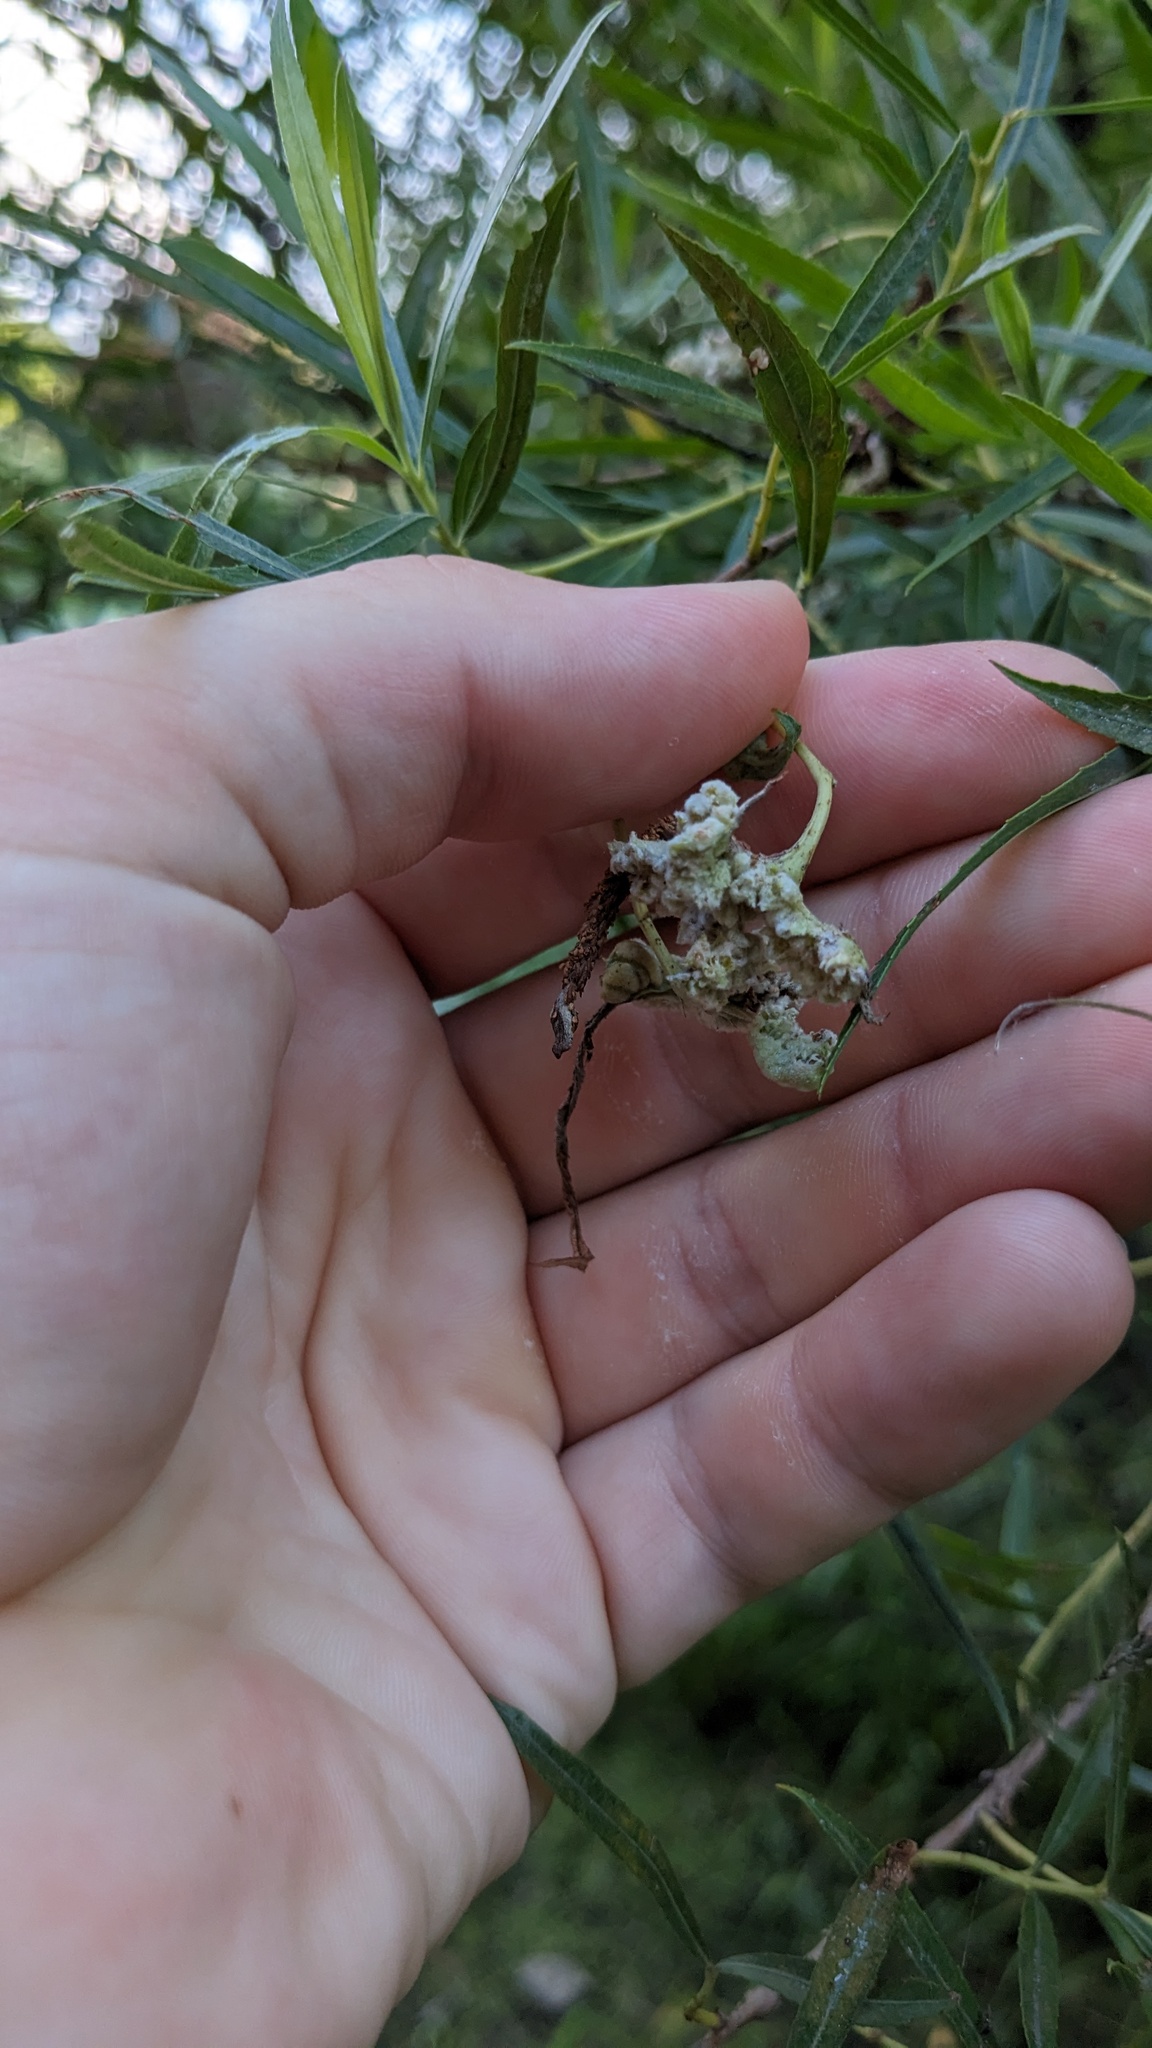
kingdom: Animalia
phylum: Arthropoda
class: Arachnida
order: Trombidiformes
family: Eriophyidae
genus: Aculops
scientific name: Aculops
